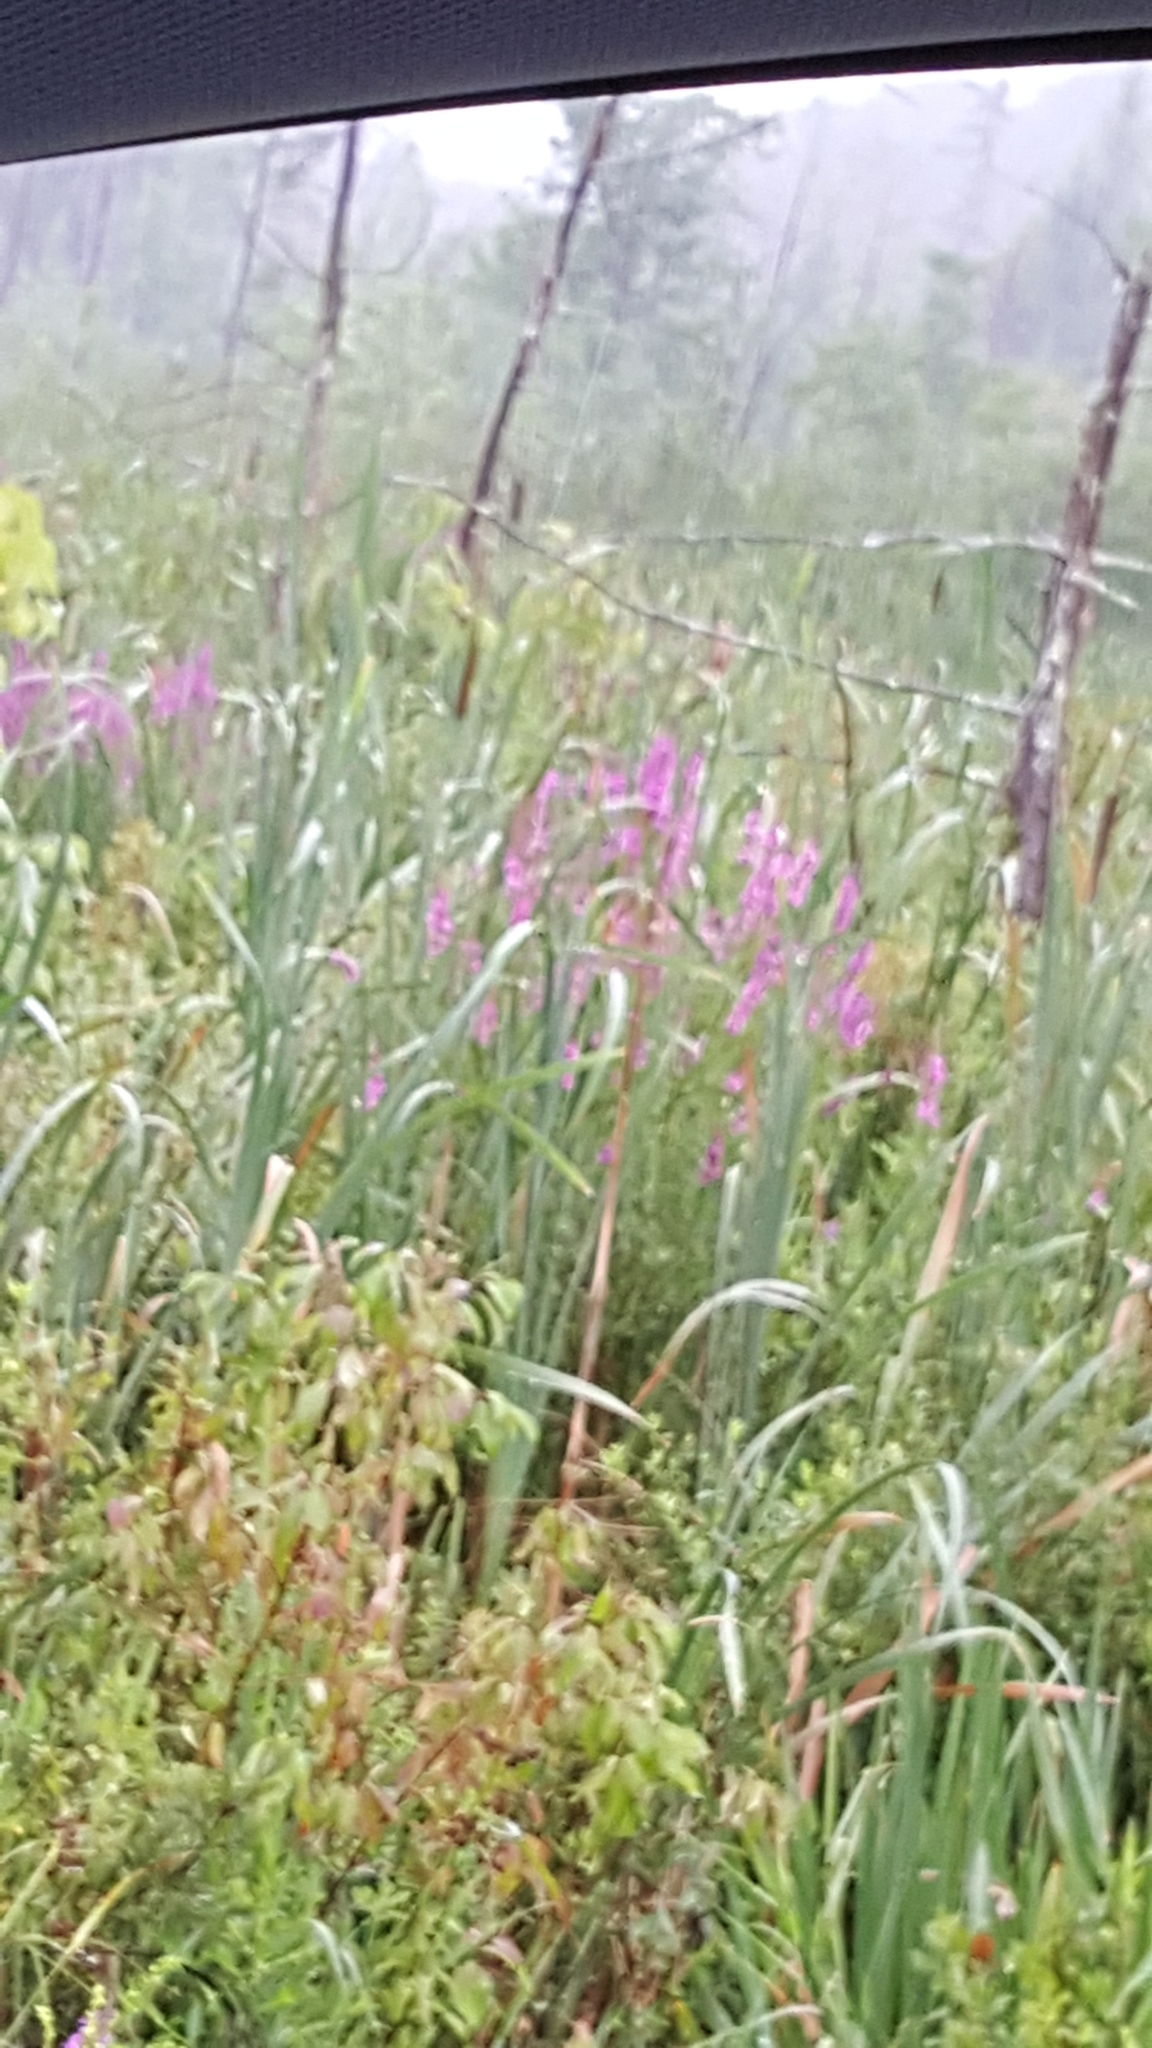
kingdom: Plantae
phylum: Tracheophyta
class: Magnoliopsida
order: Myrtales
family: Lythraceae
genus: Lythrum
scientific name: Lythrum salicaria
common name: Purple loosestrife
